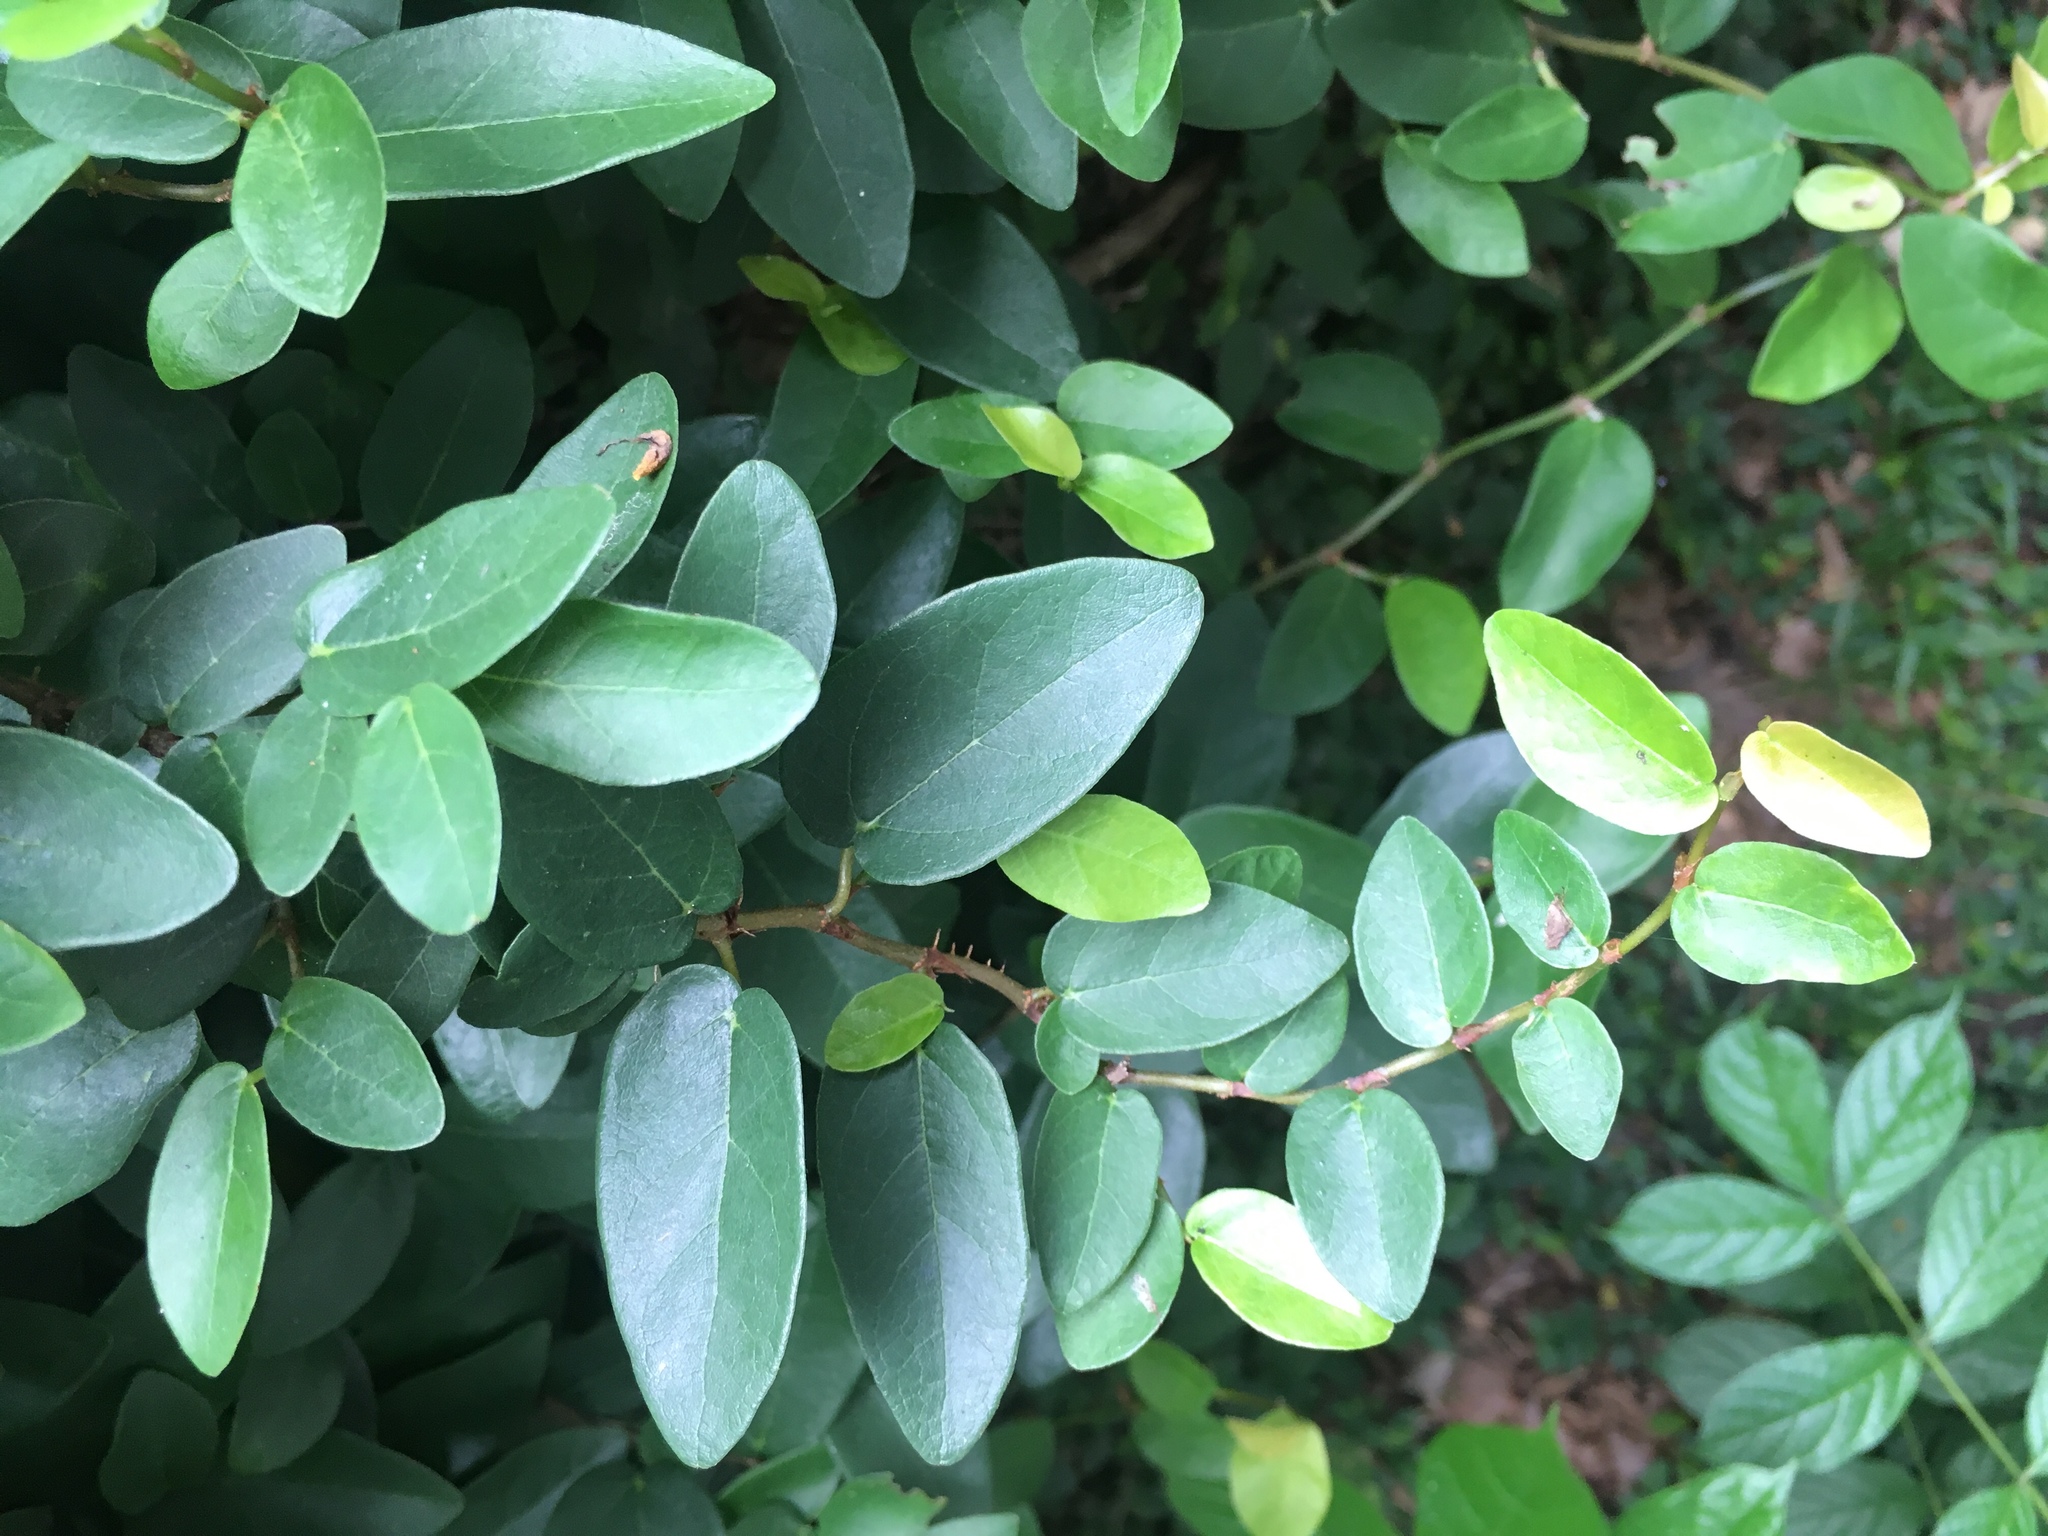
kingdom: Plantae
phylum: Tracheophyta
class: Magnoliopsida
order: Rosales
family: Moraceae
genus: Ficus
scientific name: Ficus pumila
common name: Climbingfig
